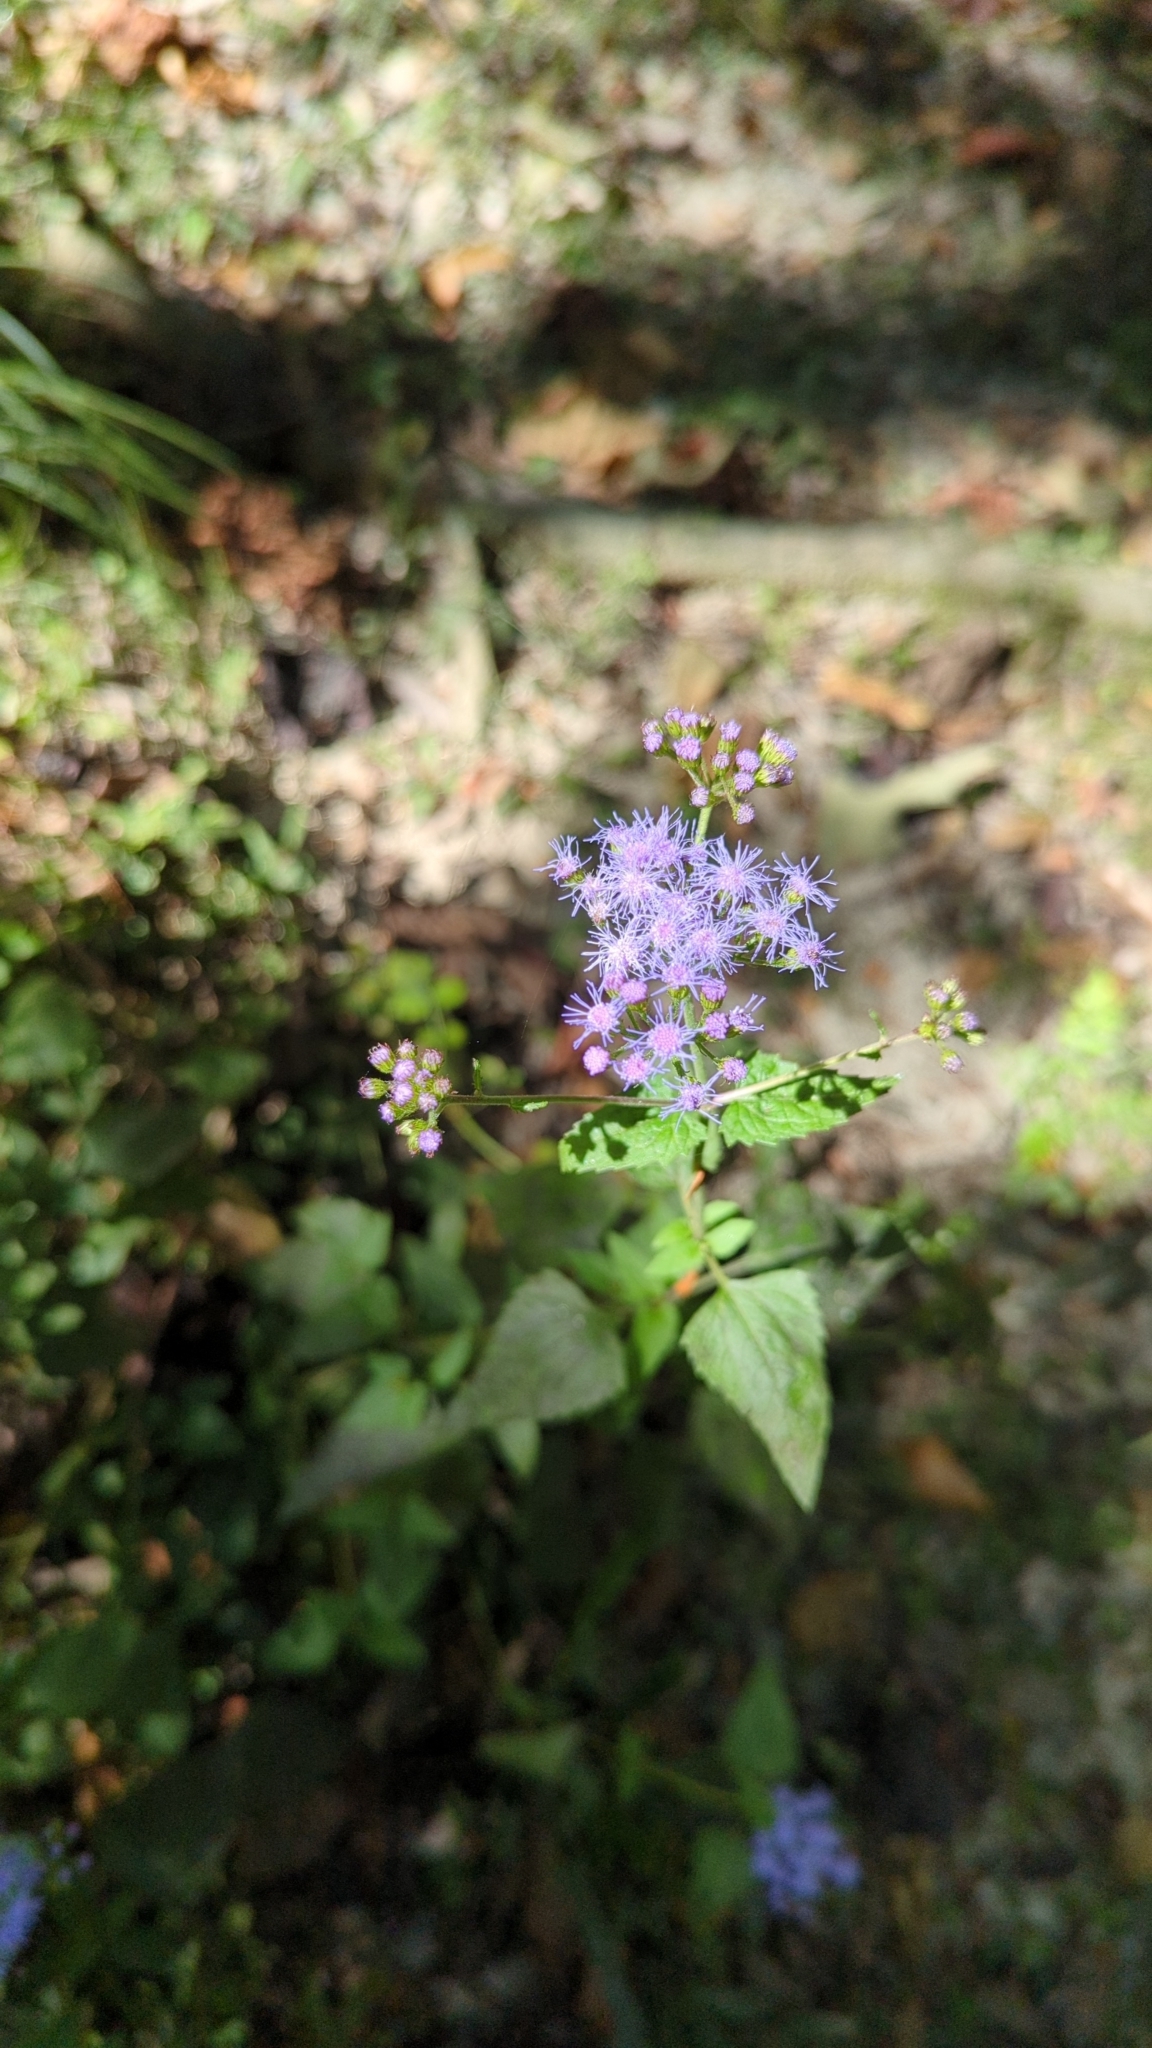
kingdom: Plantae
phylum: Tracheophyta
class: Magnoliopsida
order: Asterales
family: Asteraceae
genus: Conoclinium
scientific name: Conoclinium coelestinum
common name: Blue mistflower
